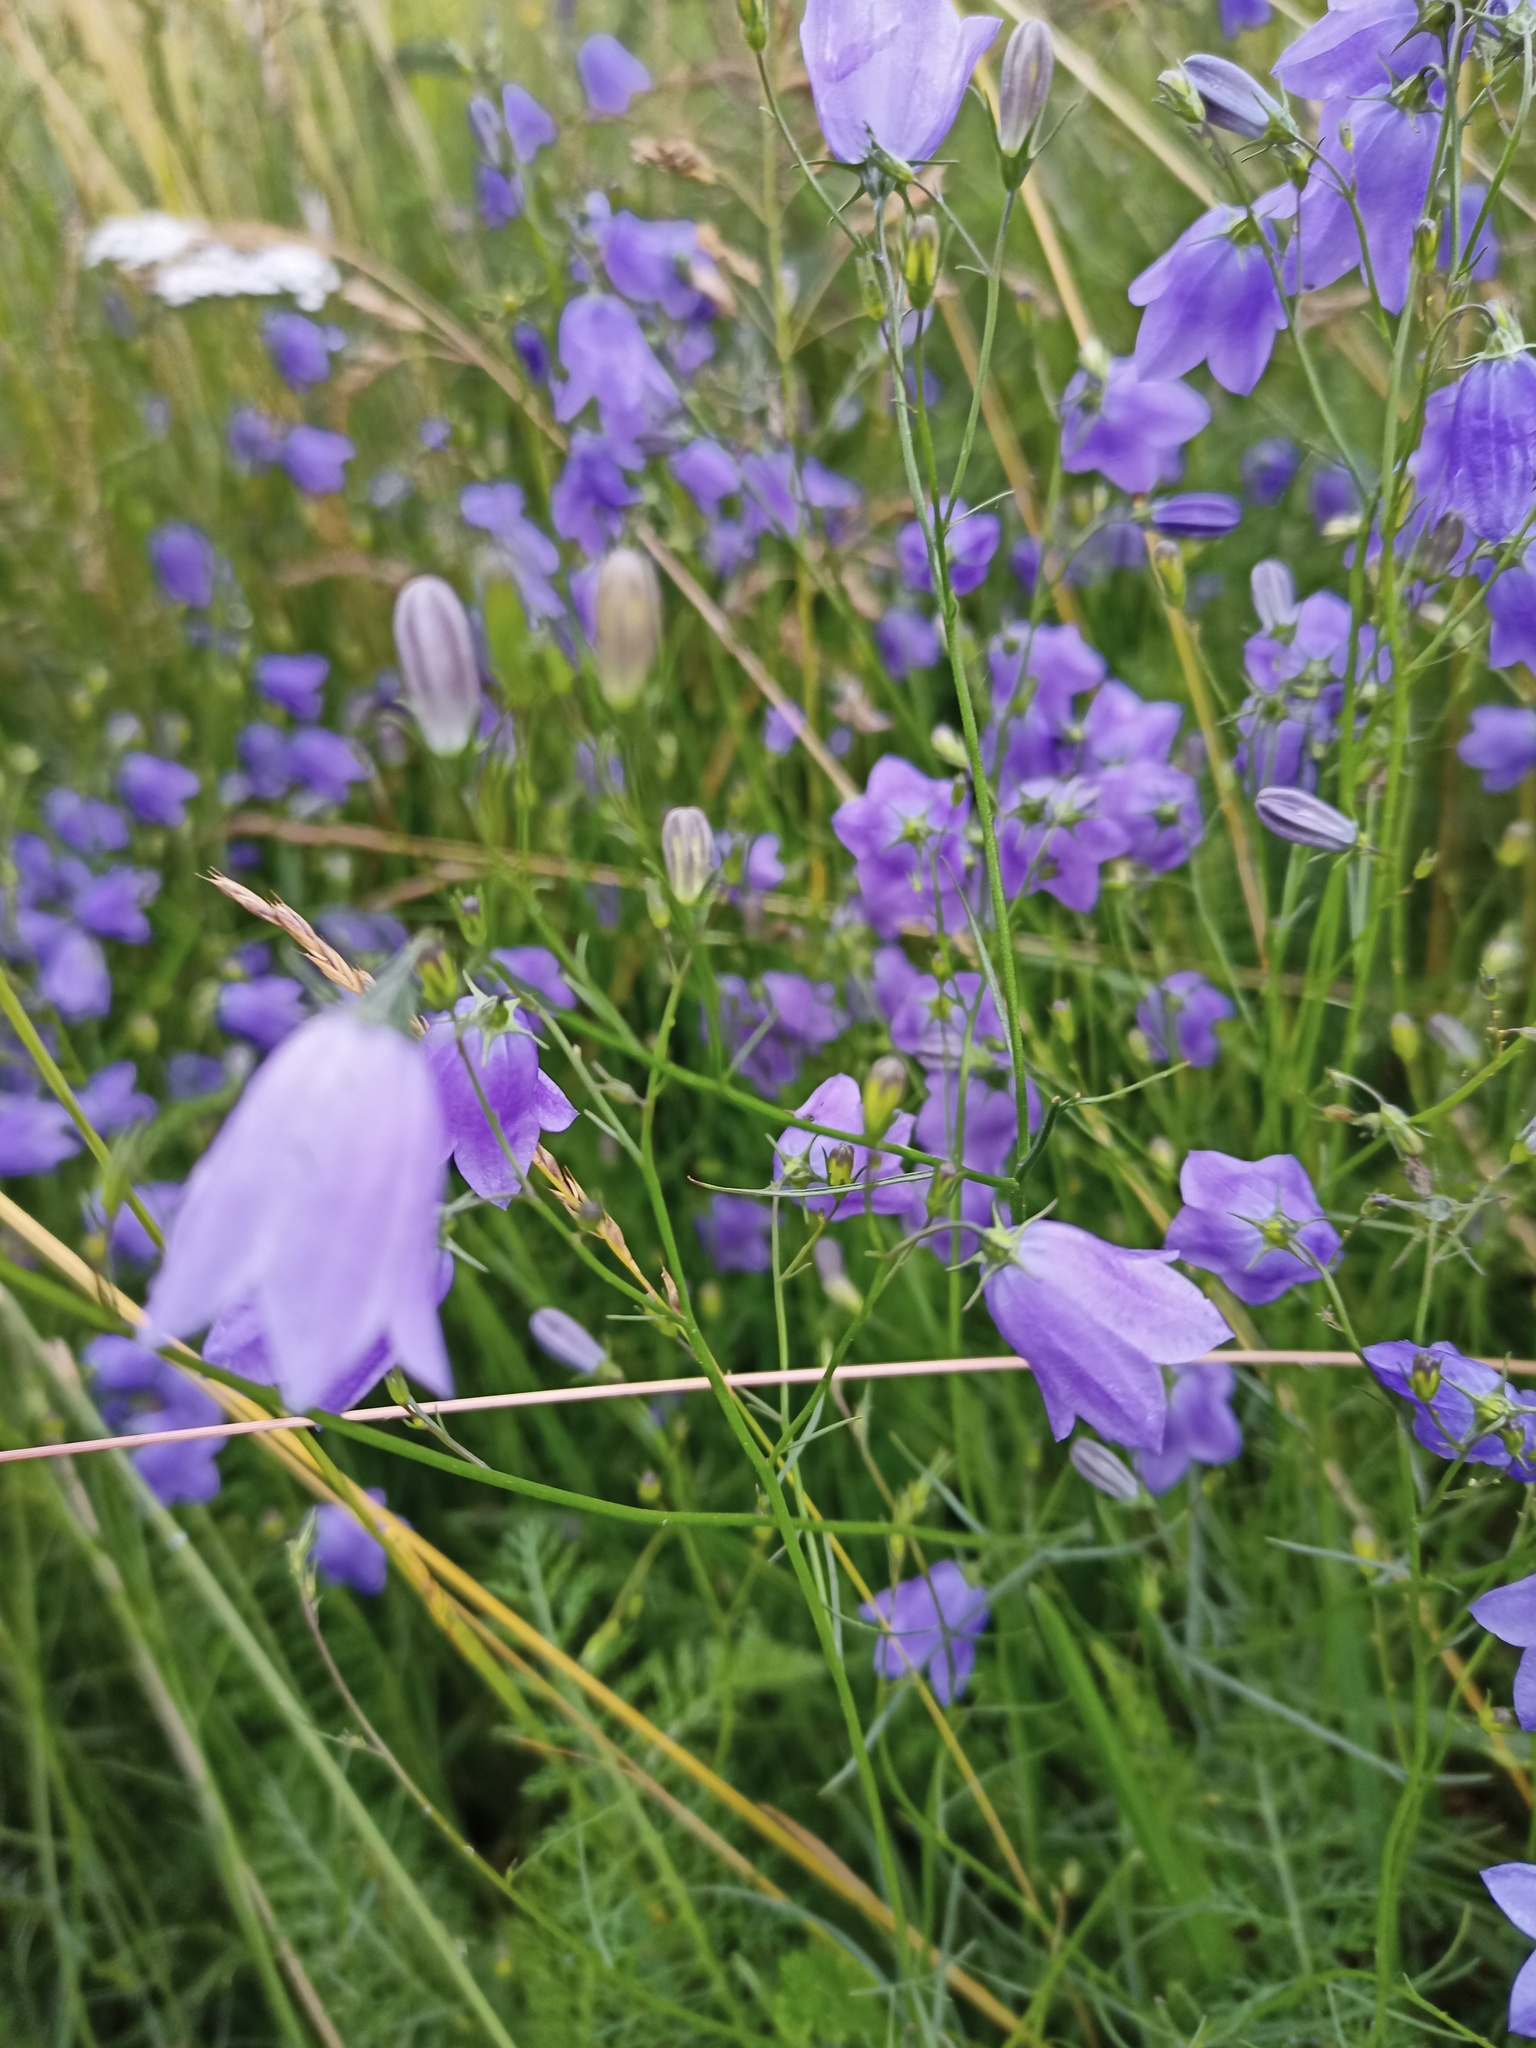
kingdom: Plantae
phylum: Tracheophyta
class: Magnoliopsida
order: Asterales
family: Campanulaceae
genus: Campanula
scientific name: Campanula rotundifolia
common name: Harebell
